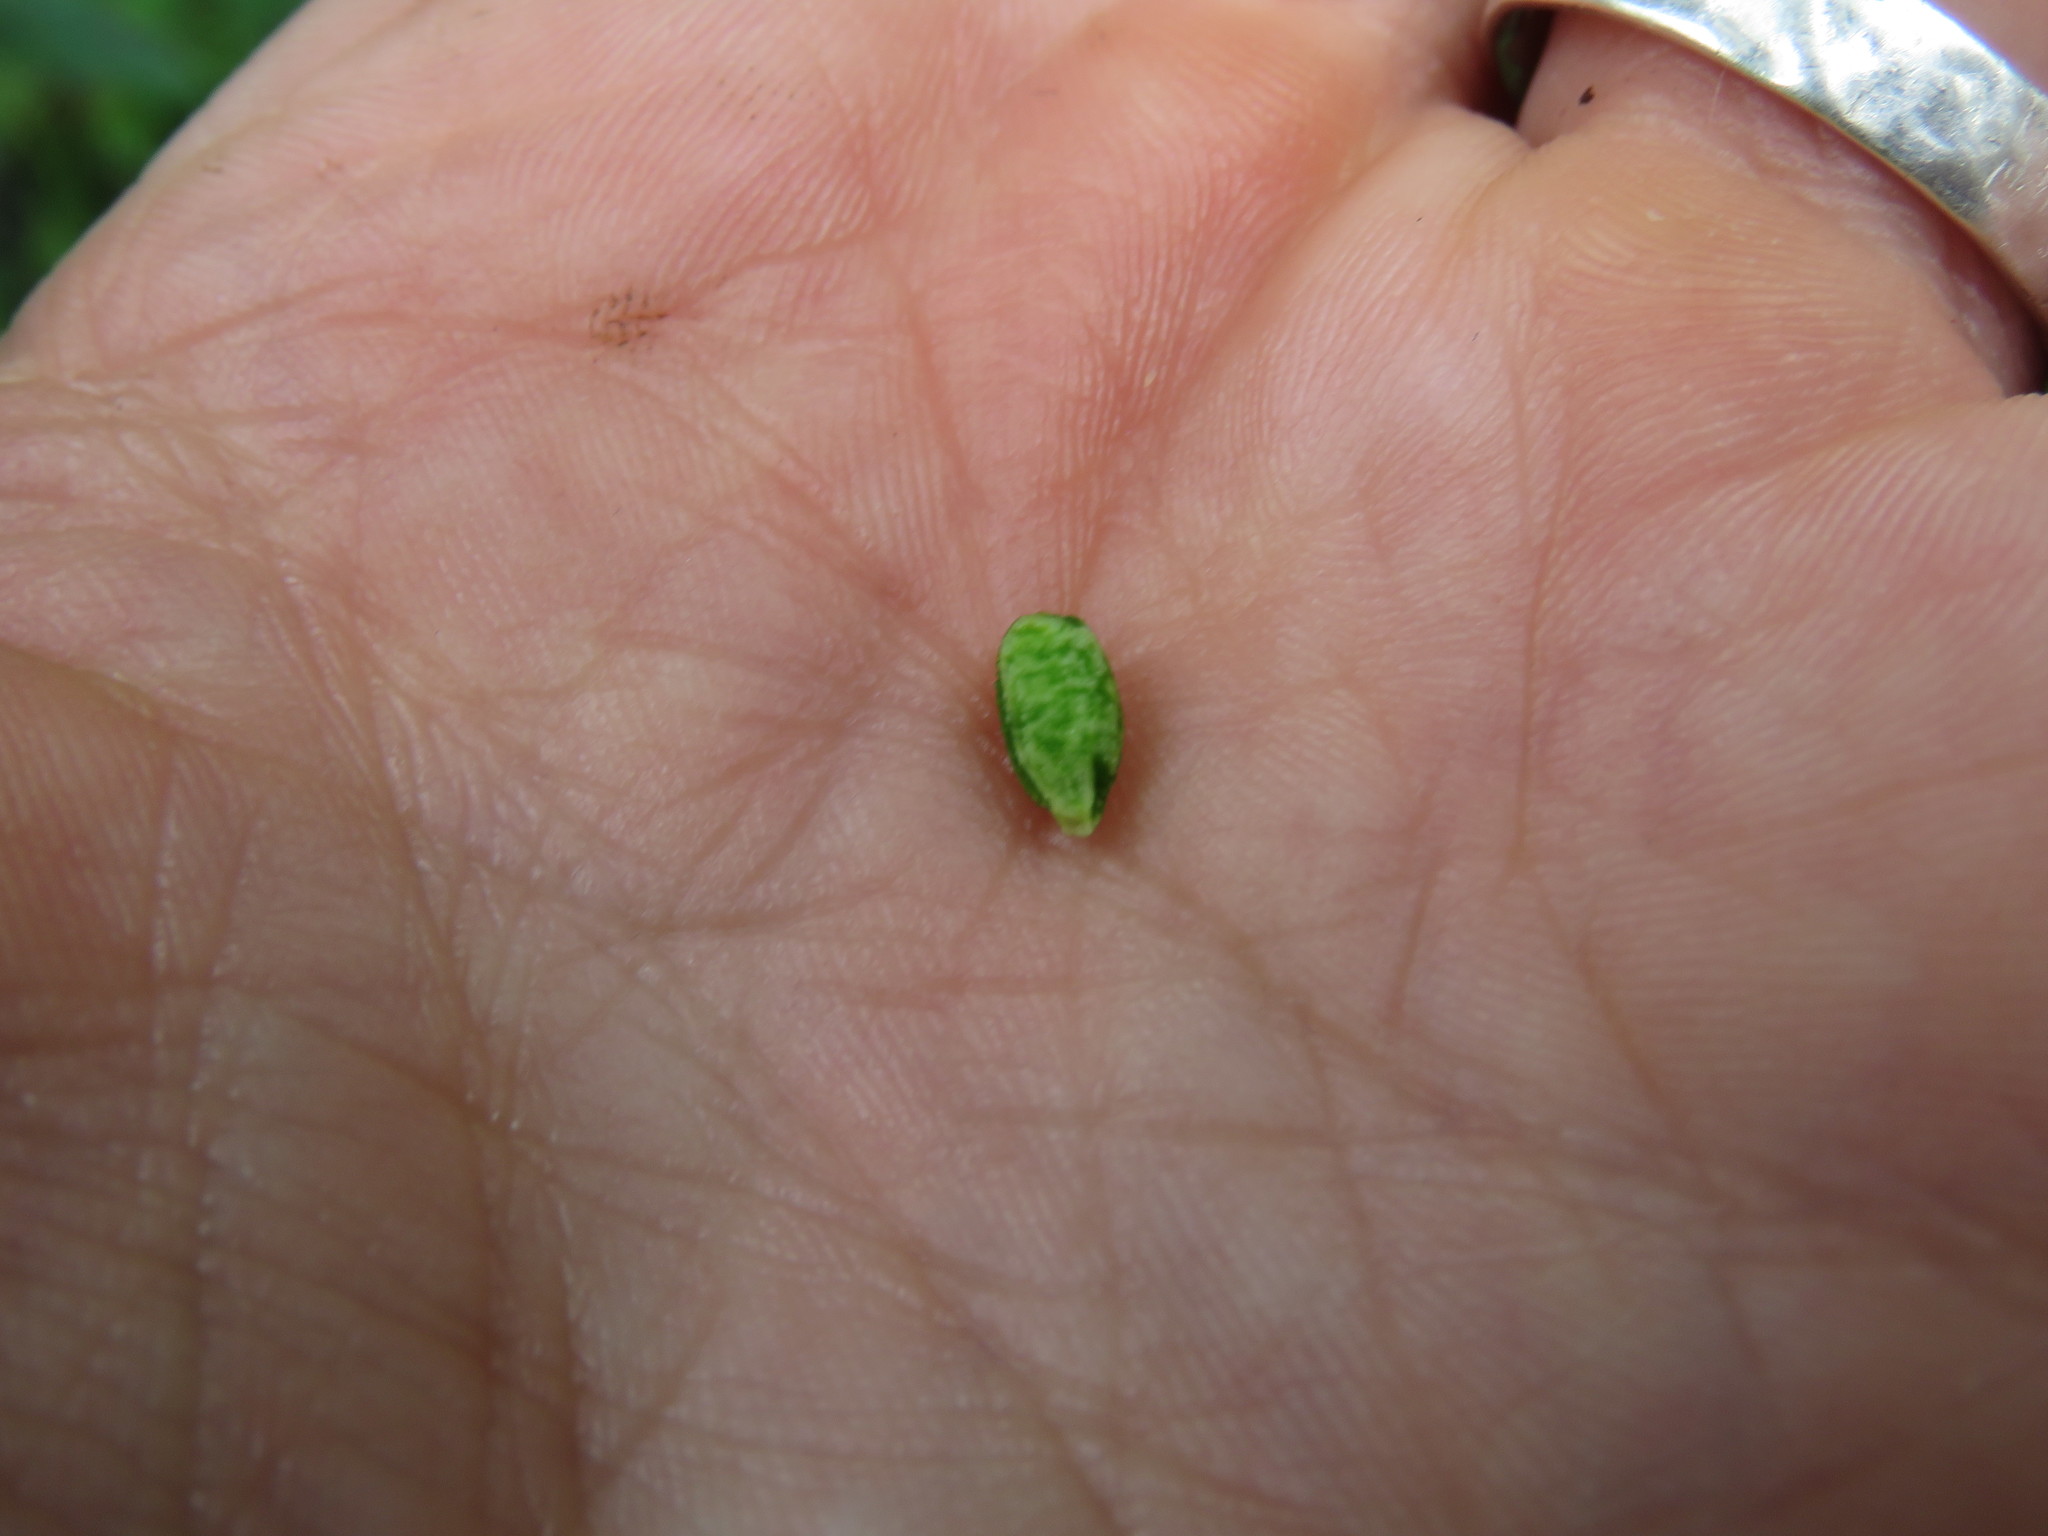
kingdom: Plantae
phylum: Tracheophyta
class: Magnoliopsida
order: Ericales
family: Balsaminaceae
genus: Impatiens
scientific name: Impatiens pallida
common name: Pale snapweed
